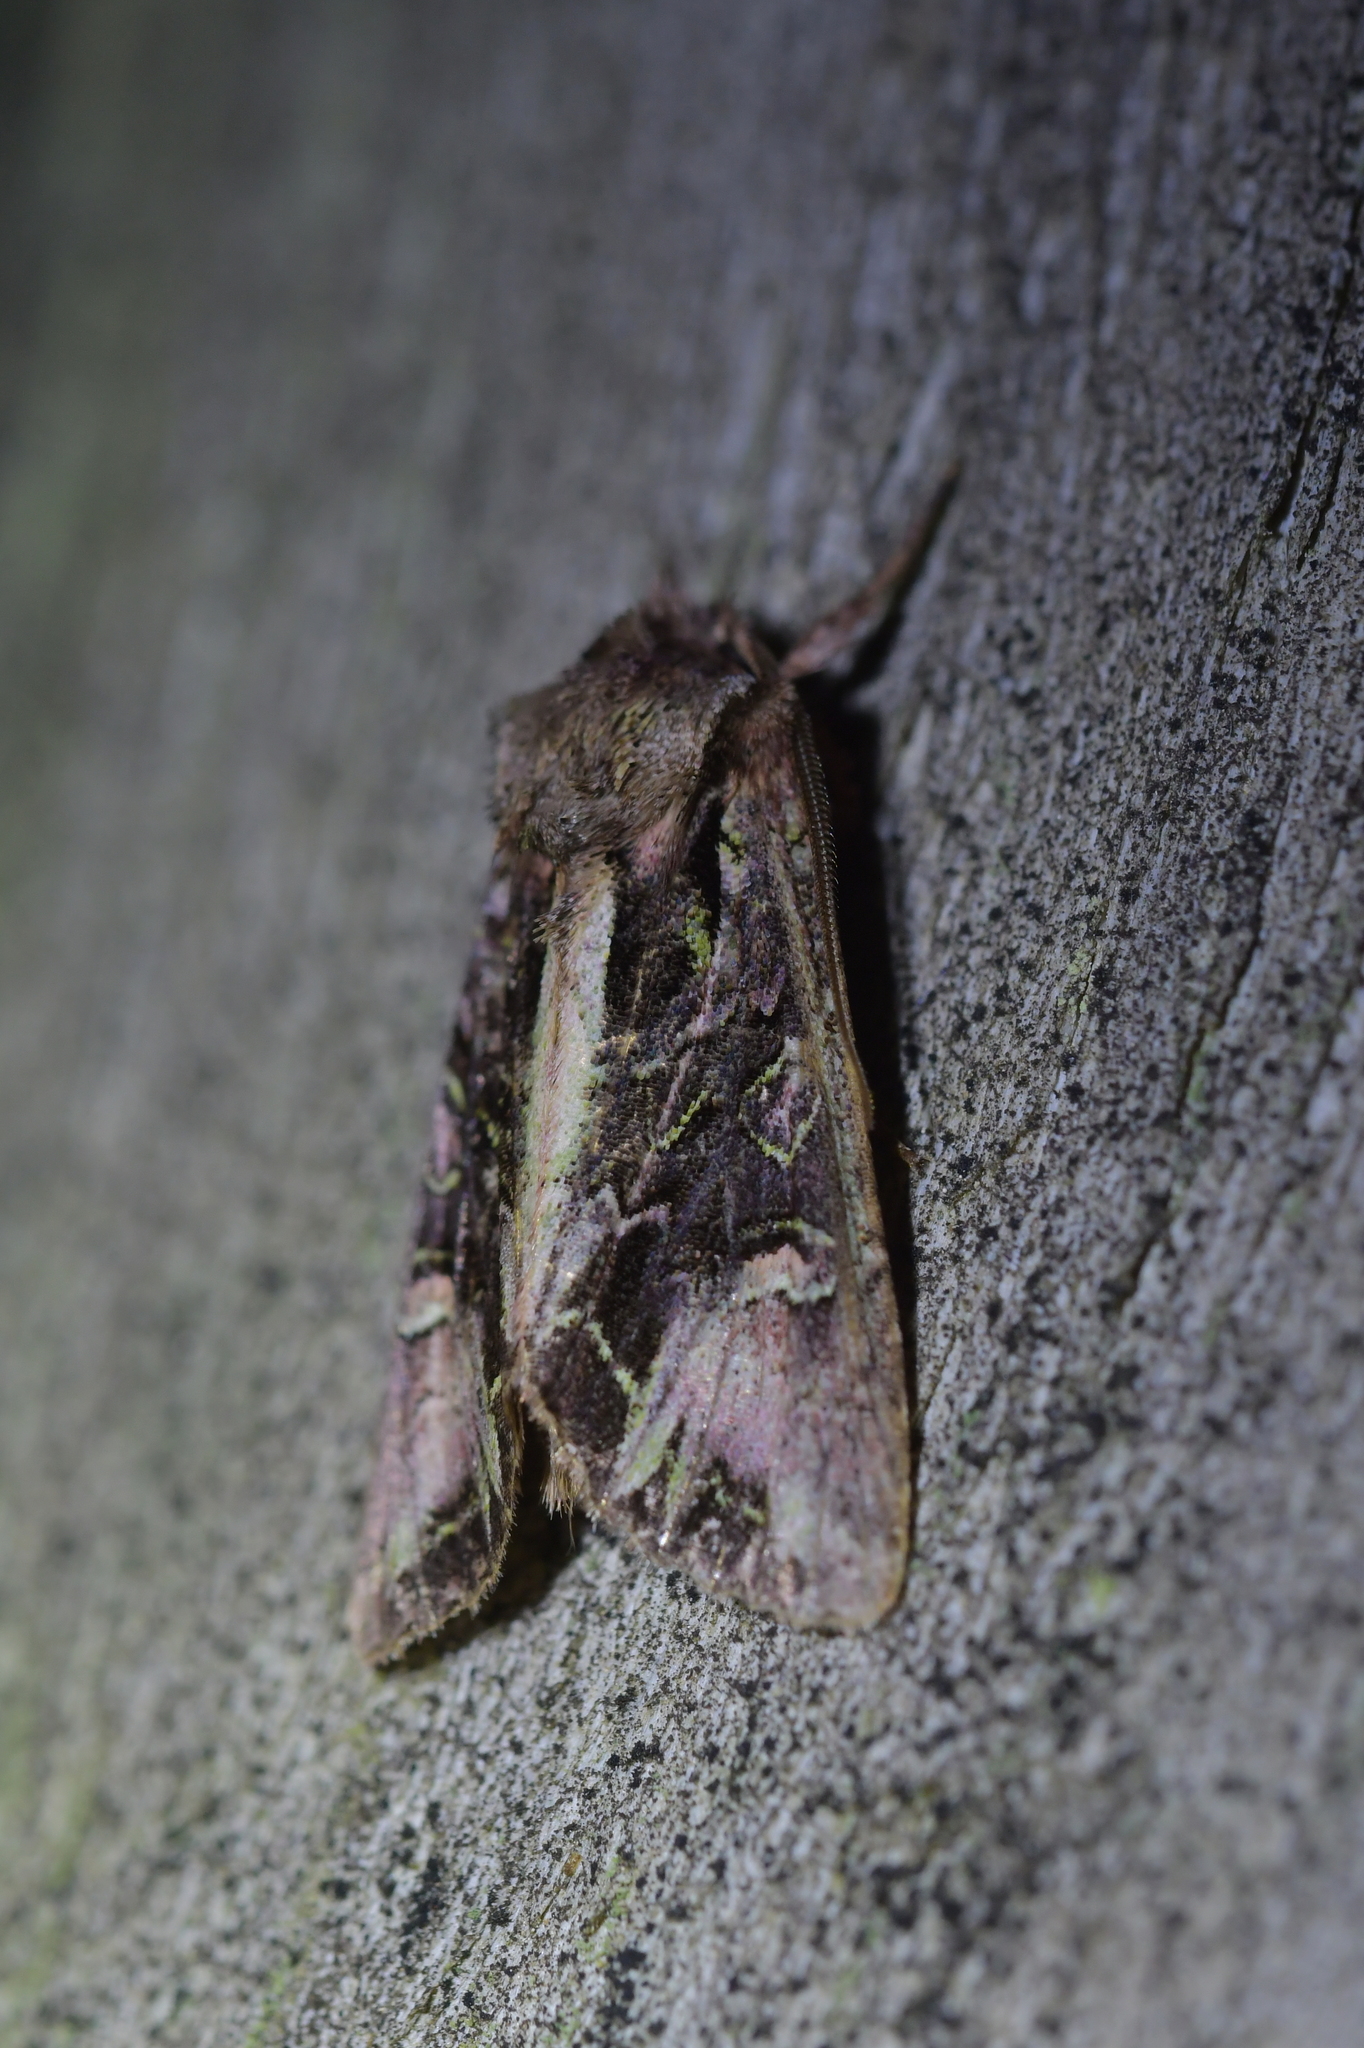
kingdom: Animalia
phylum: Arthropoda
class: Insecta
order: Lepidoptera
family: Noctuidae
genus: Ichneutica
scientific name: Ichneutica insignis
